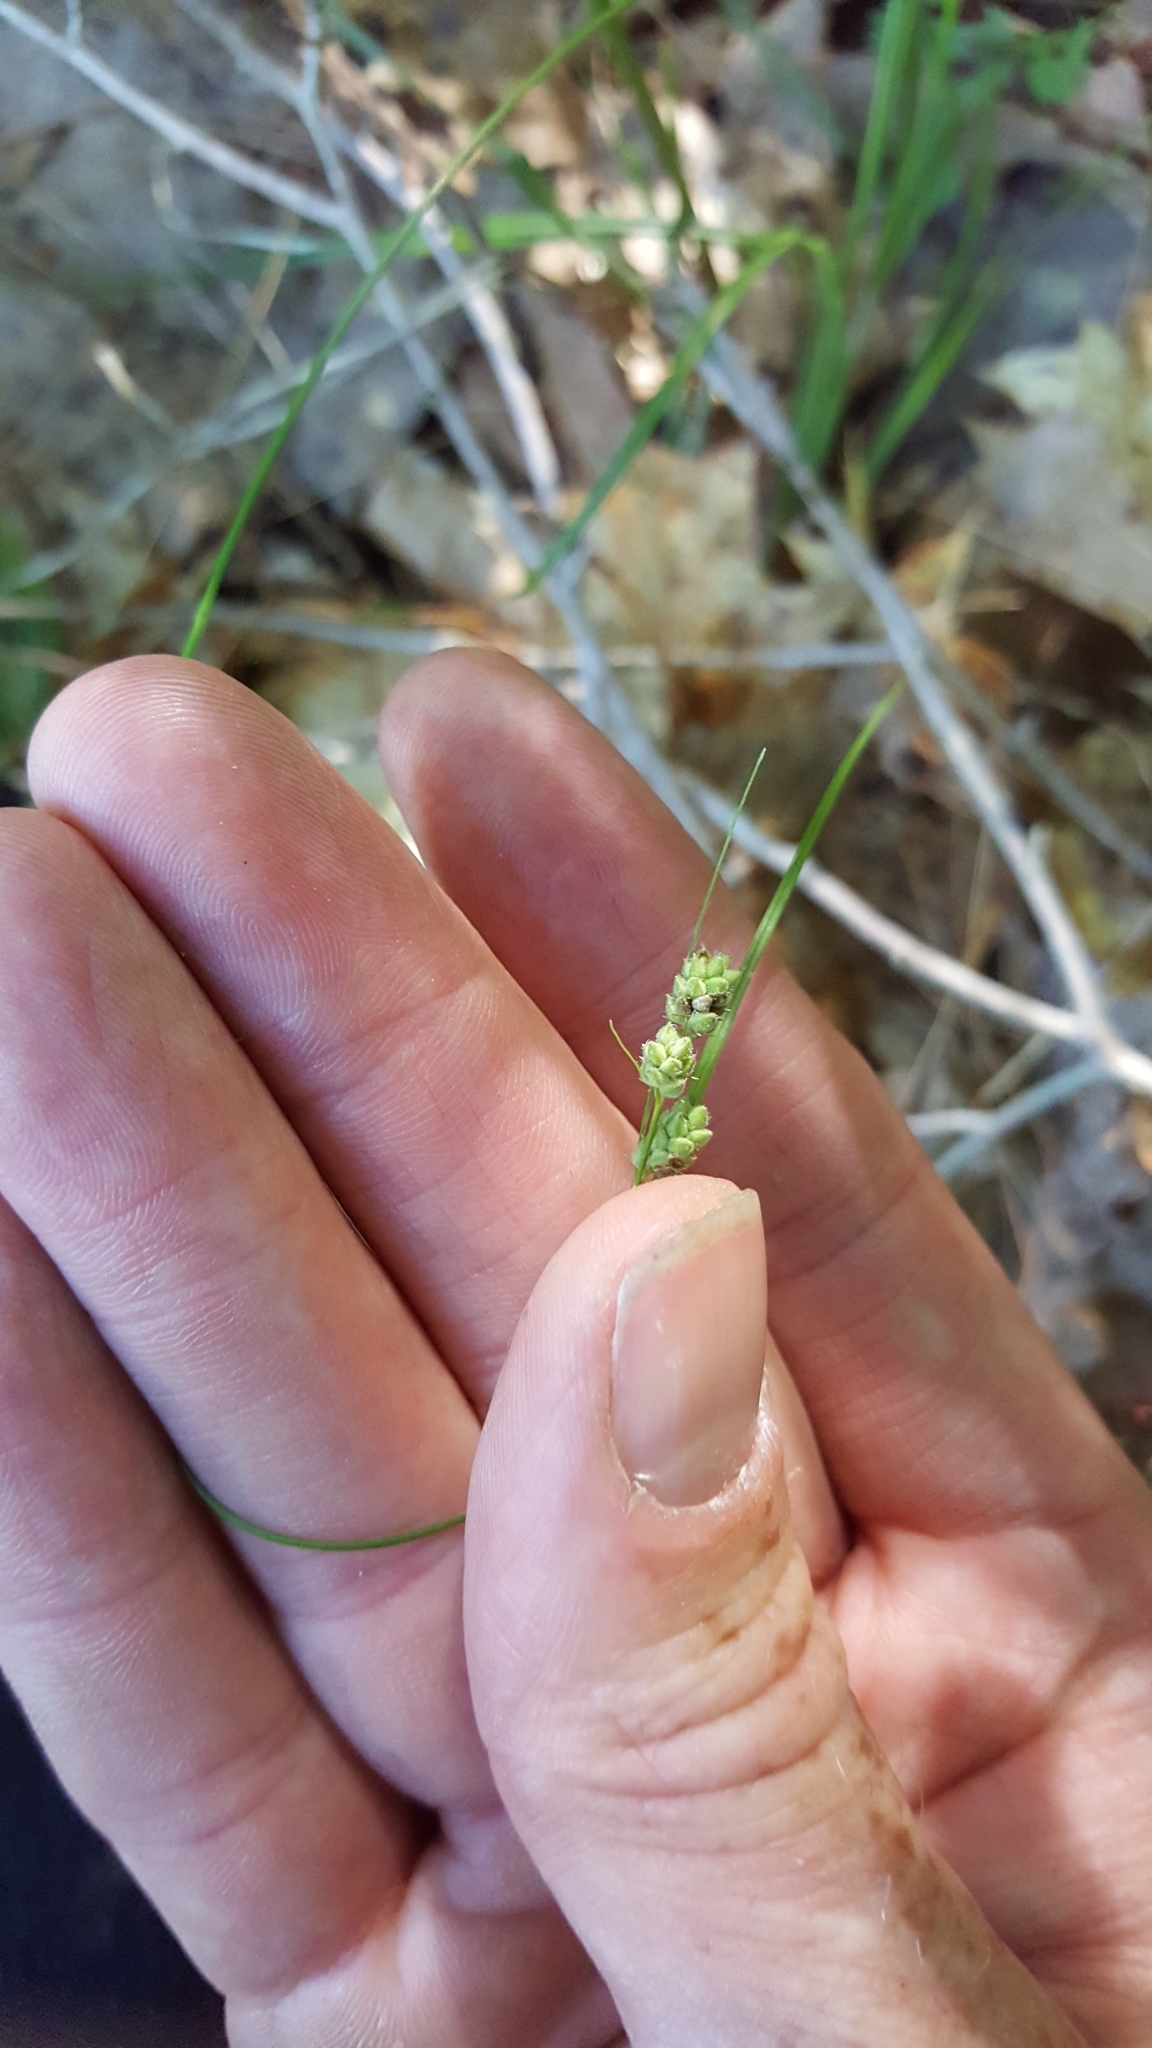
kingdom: Plantae
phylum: Tracheophyta
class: Liliopsida
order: Poales
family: Cyperaceae
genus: Carex
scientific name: Carex swanii
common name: Downy green sedge
